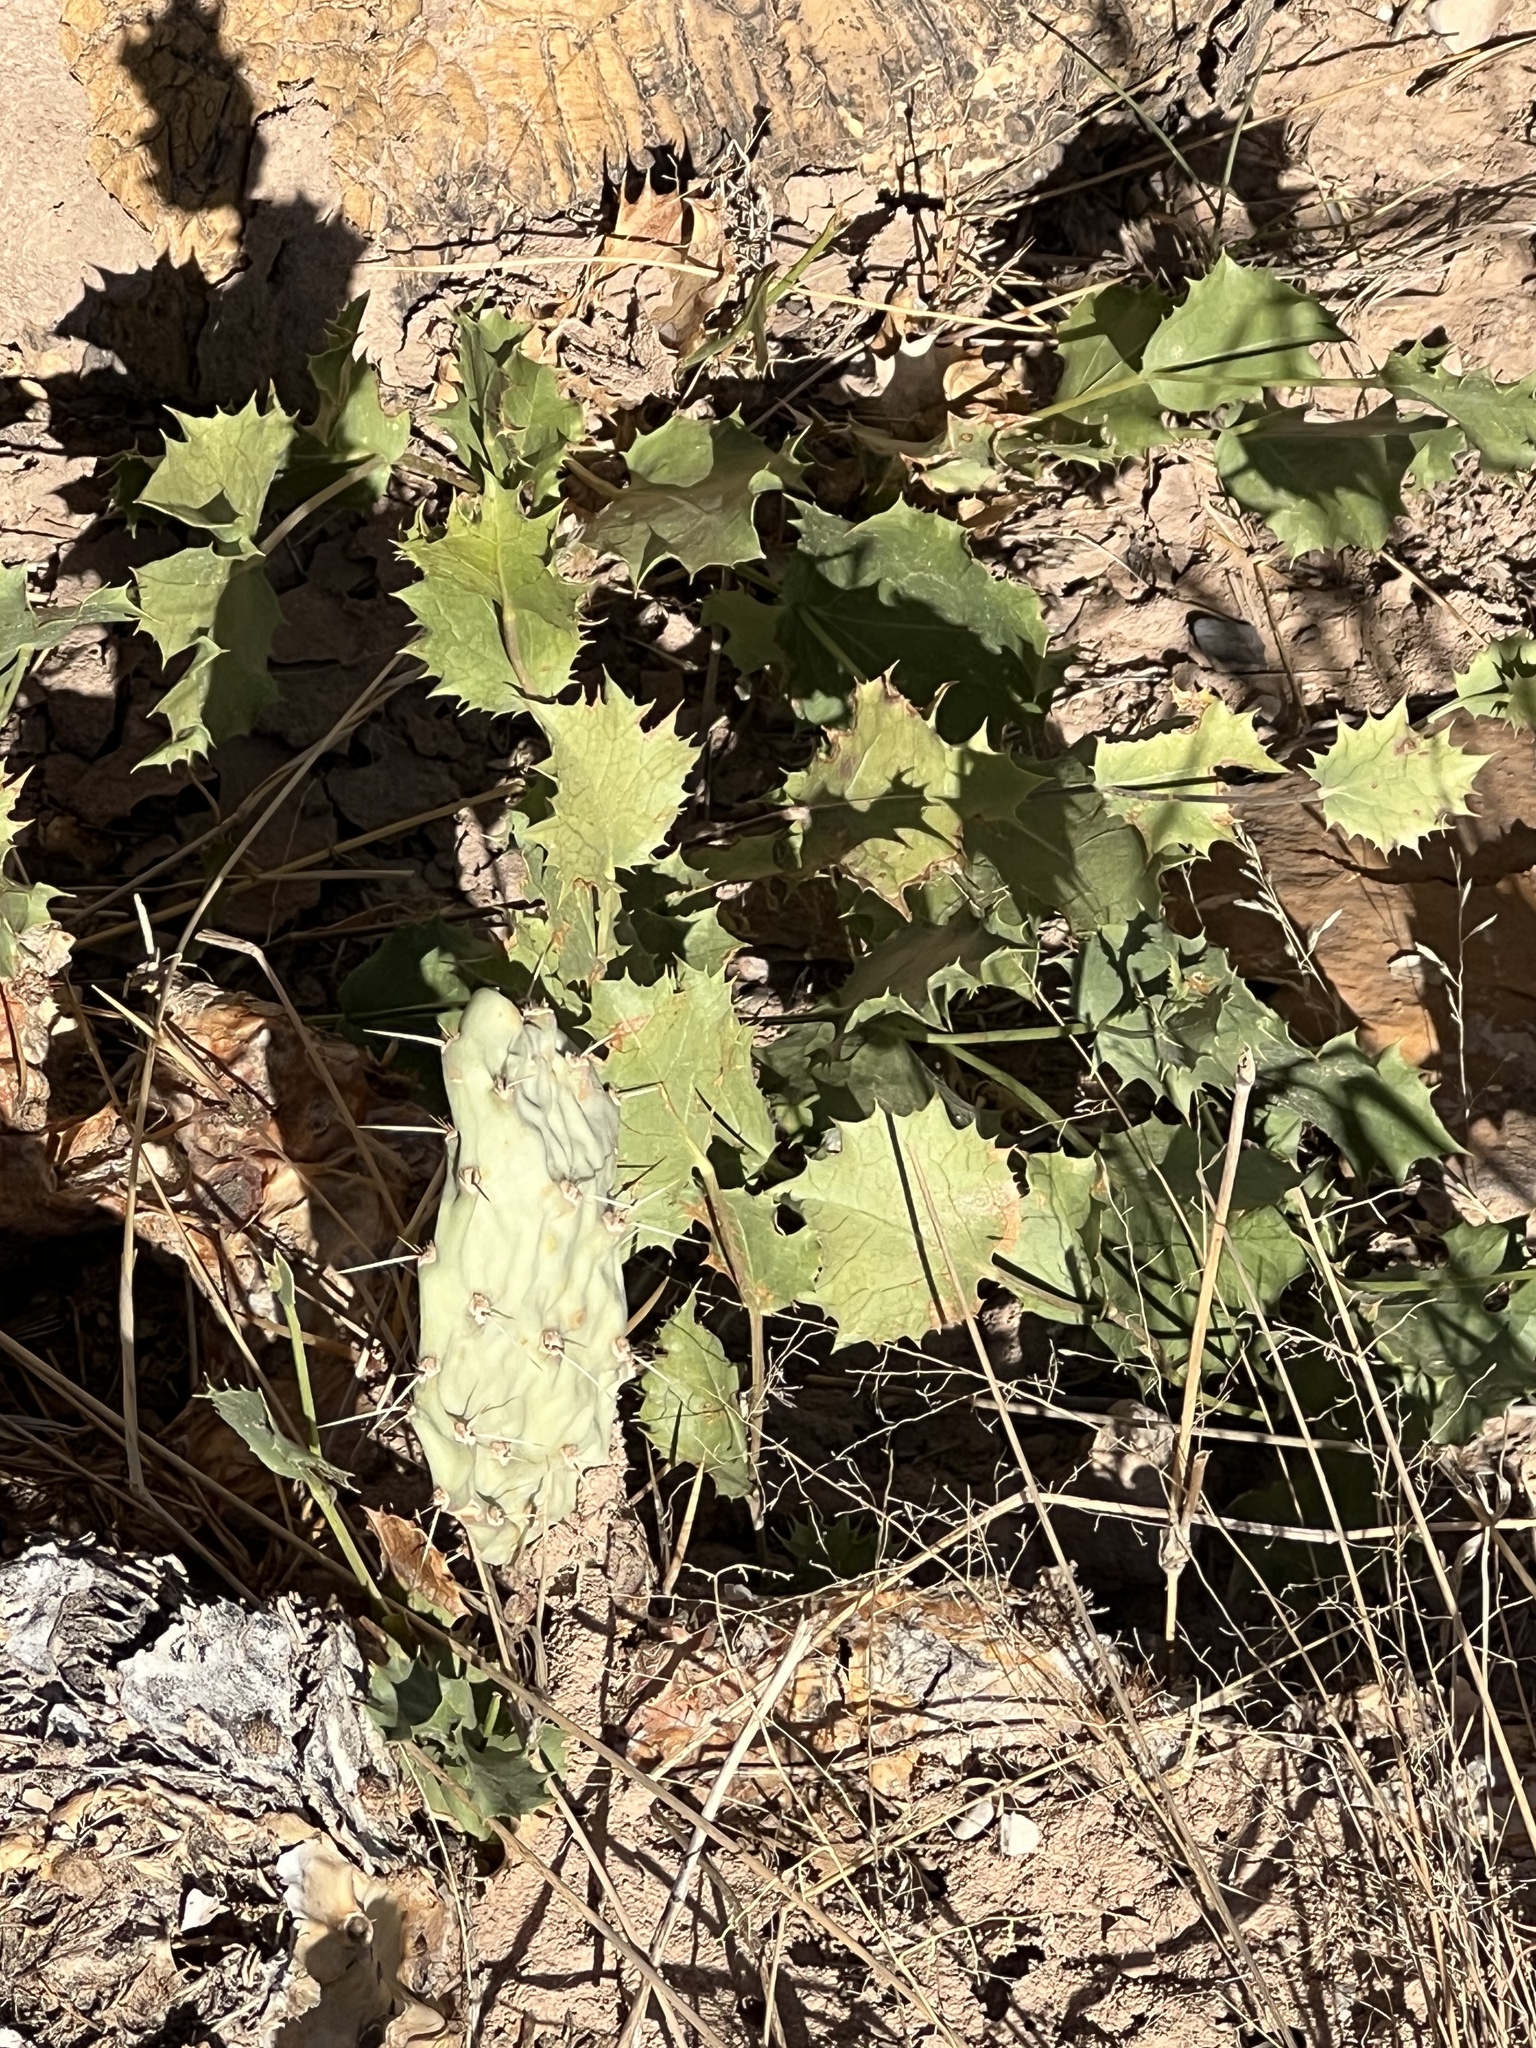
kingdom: Plantae
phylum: Tracheophyta
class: Magnoliopsida
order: Asterales
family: Asteraceae
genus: Acourtia
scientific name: Acourtia nana
